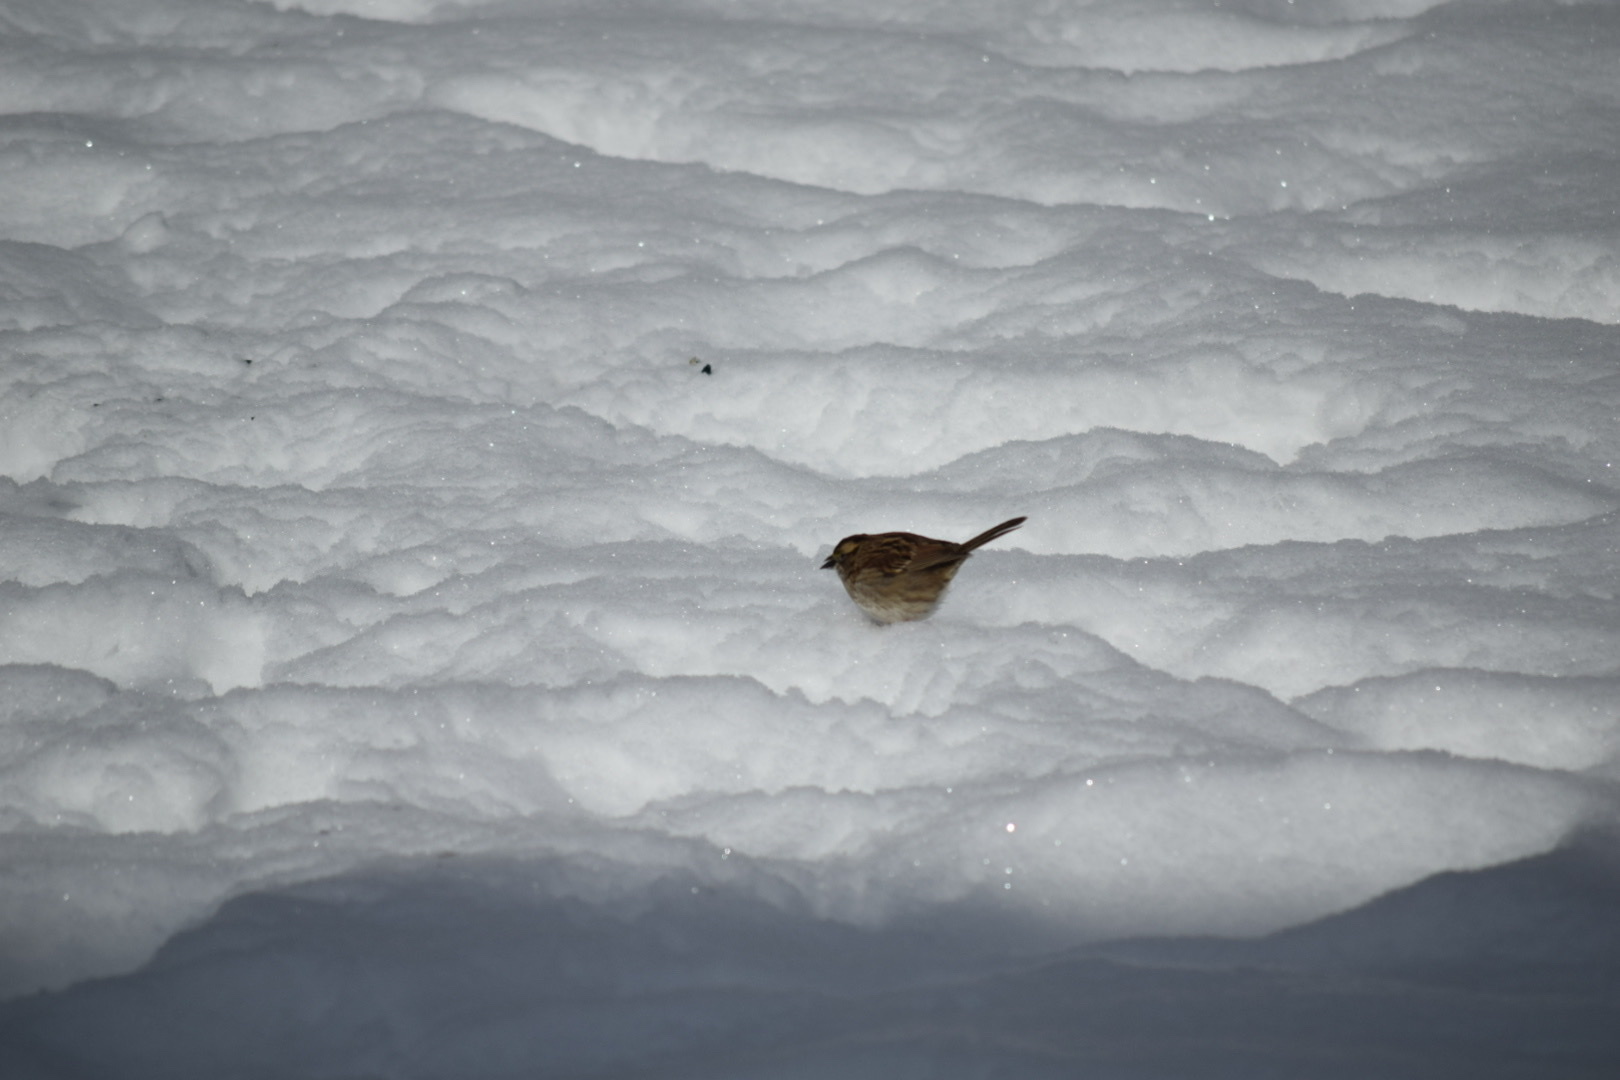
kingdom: Animalia
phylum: Chordata
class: Aves
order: Passeriformes
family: Passerellidae
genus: Zonotrichia
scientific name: Zonotrichia albicollis
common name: White-throated sparrow
